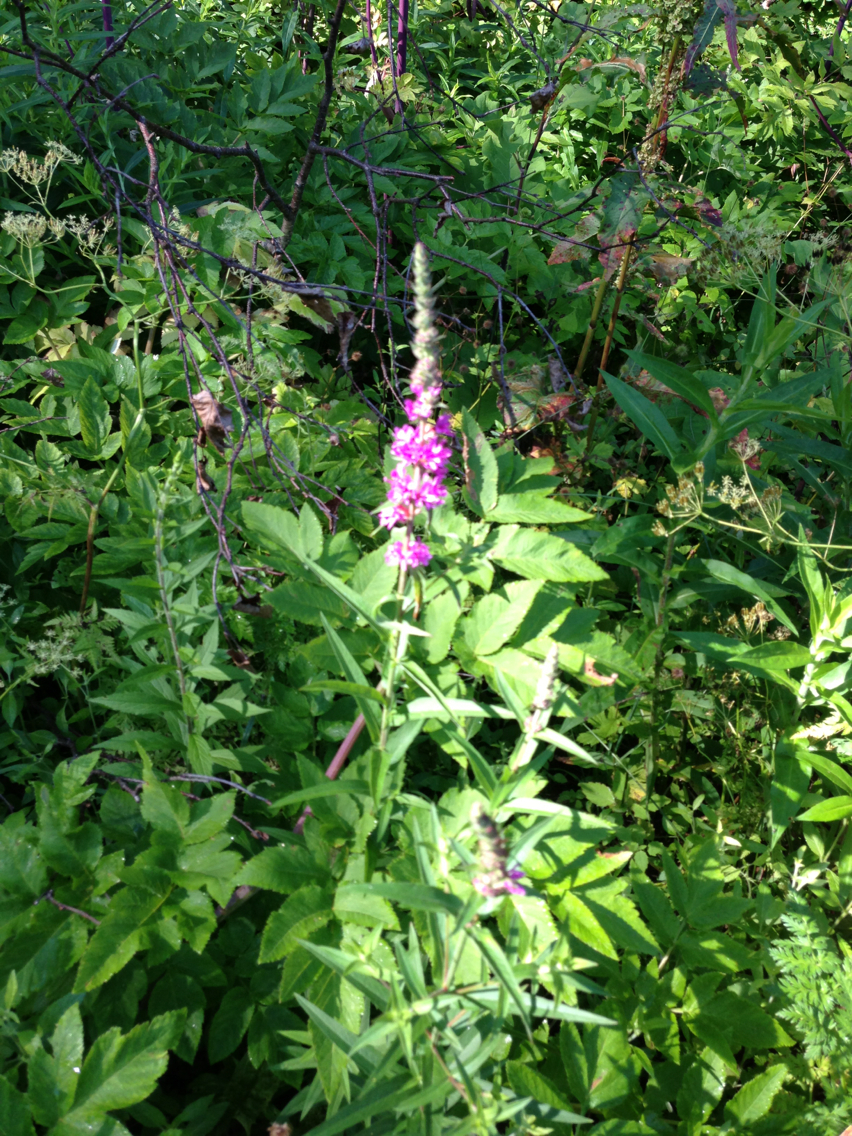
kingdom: Plantae
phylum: Tracheophyta
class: Magnoliopsida
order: Myrtales
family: Lythraceae
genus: Lythrum
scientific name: Lythrum salicaria
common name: Purple loosestrife
